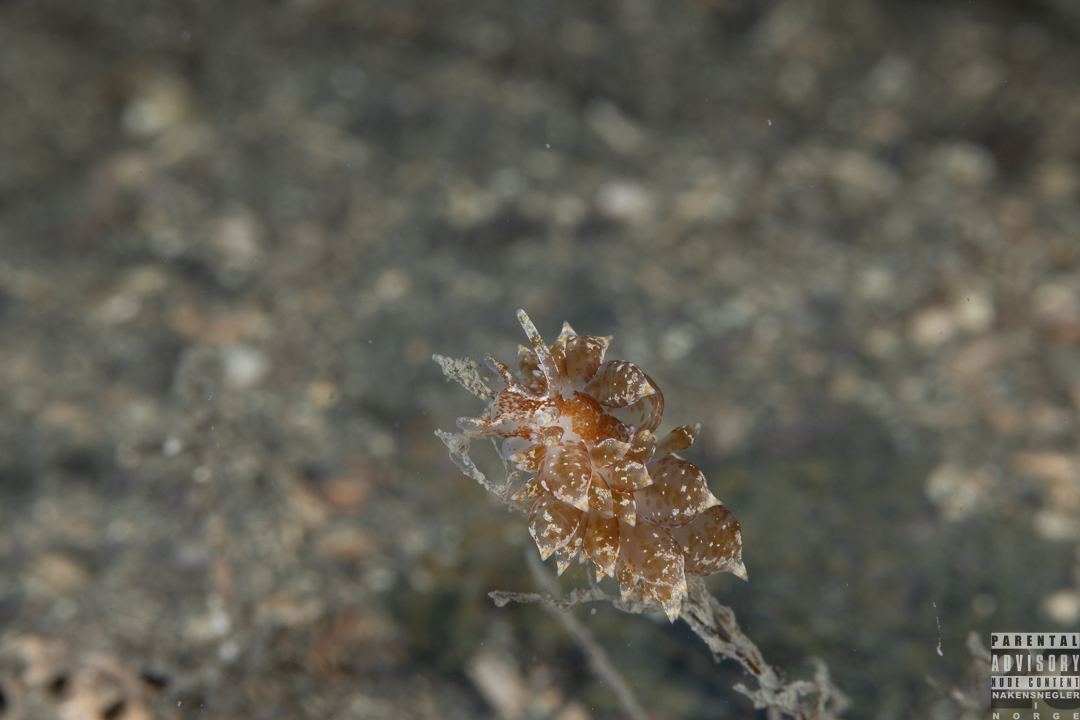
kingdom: Animalia
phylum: Mollusca
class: Gastropoda
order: Nudibranchia
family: Eubranchidae
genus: Amphorina
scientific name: Amphorina pallida
